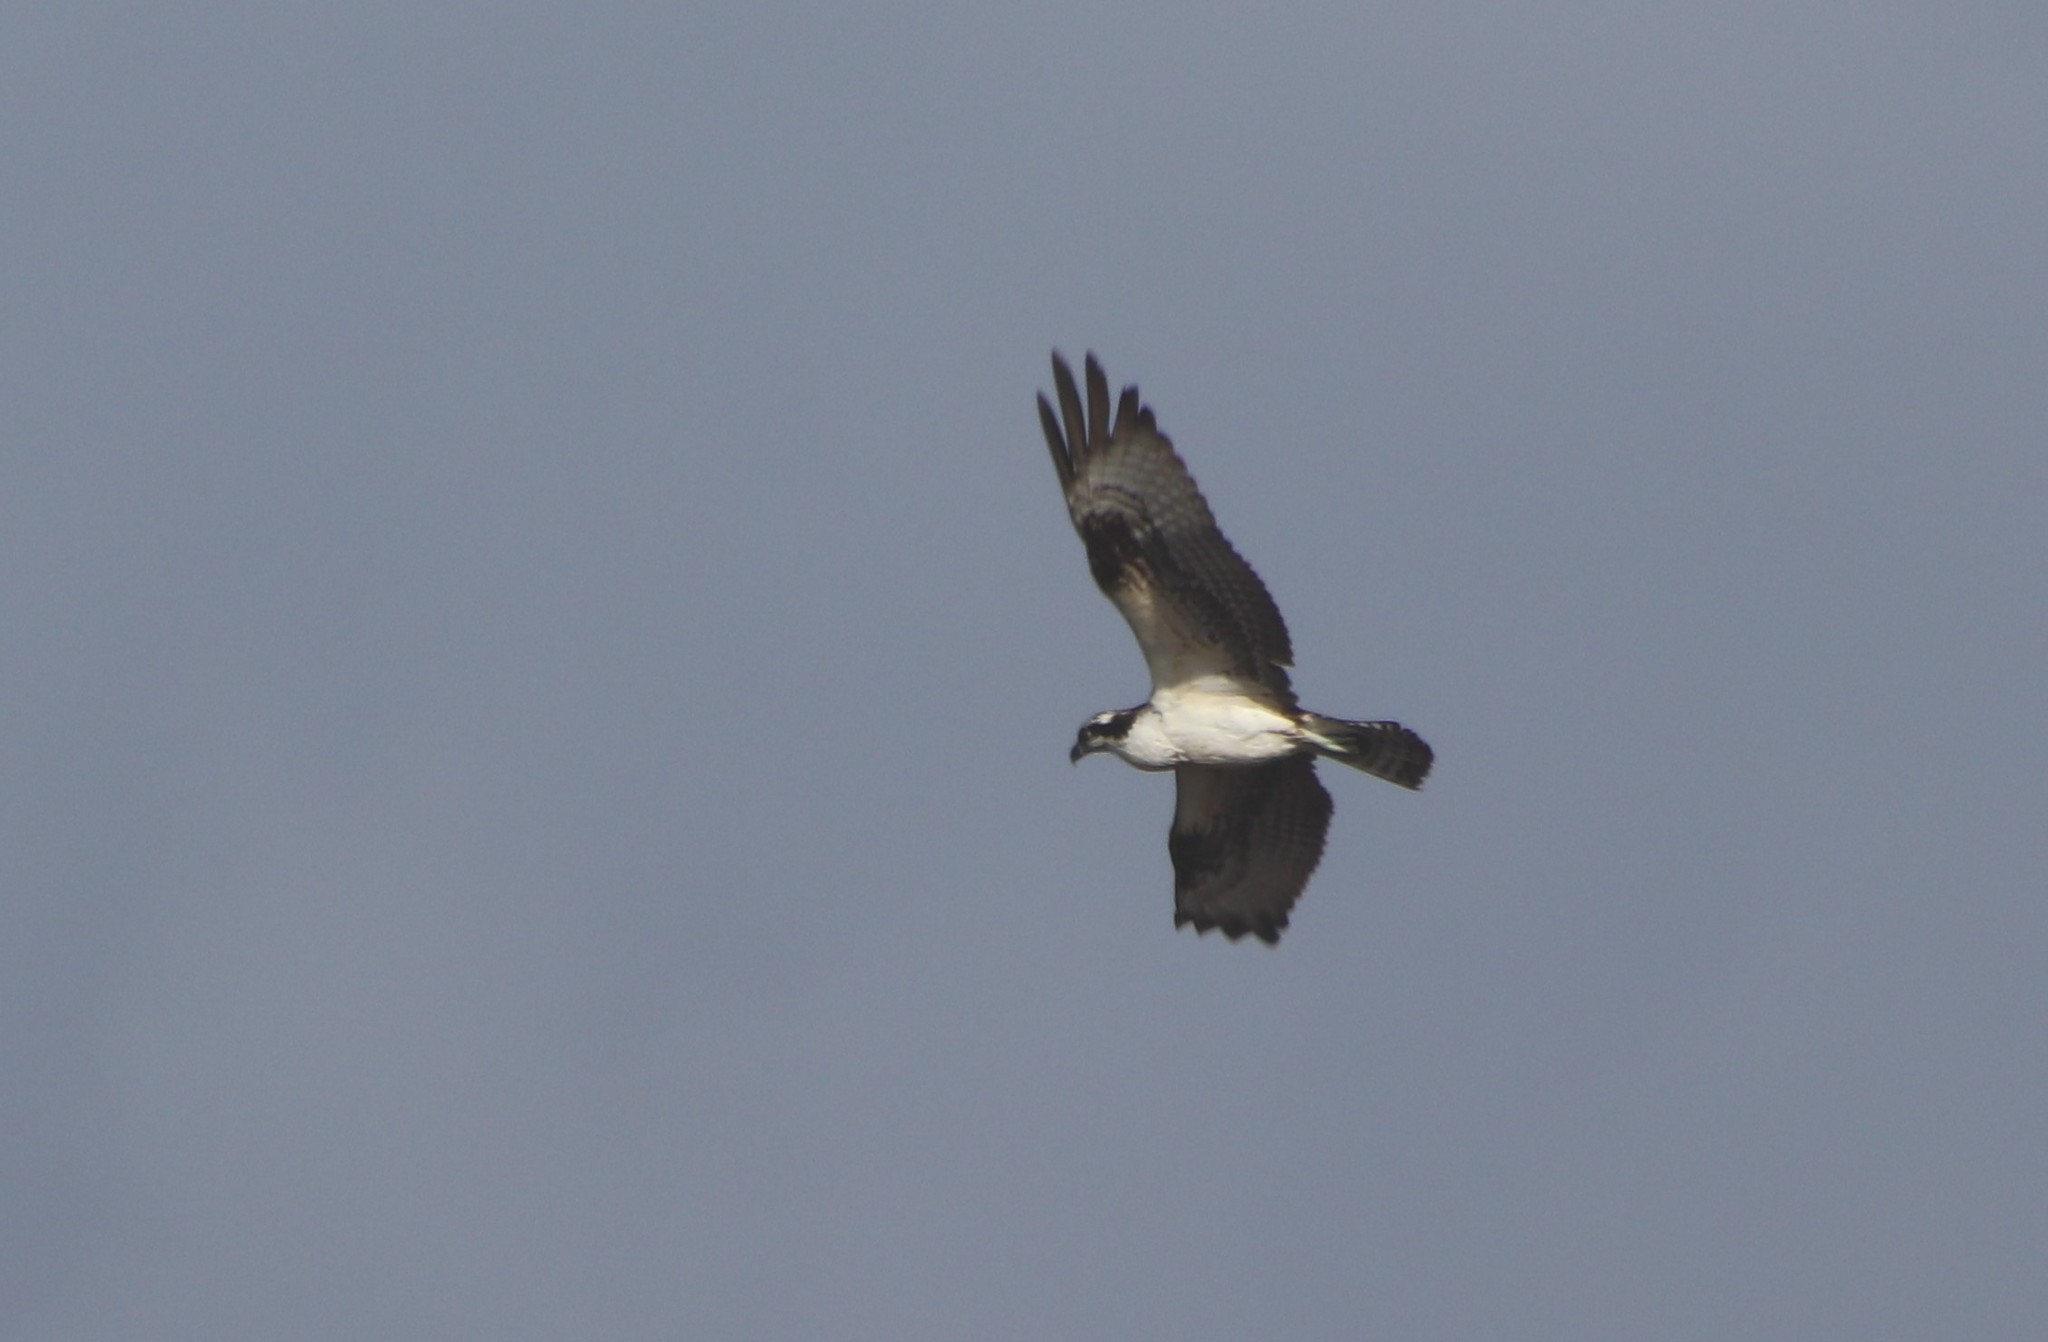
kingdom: Animalia
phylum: Chordata
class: Aves
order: Accipitriformes
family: Pandionidae
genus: Pandion
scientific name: Pandion haliaetus
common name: Osprey
